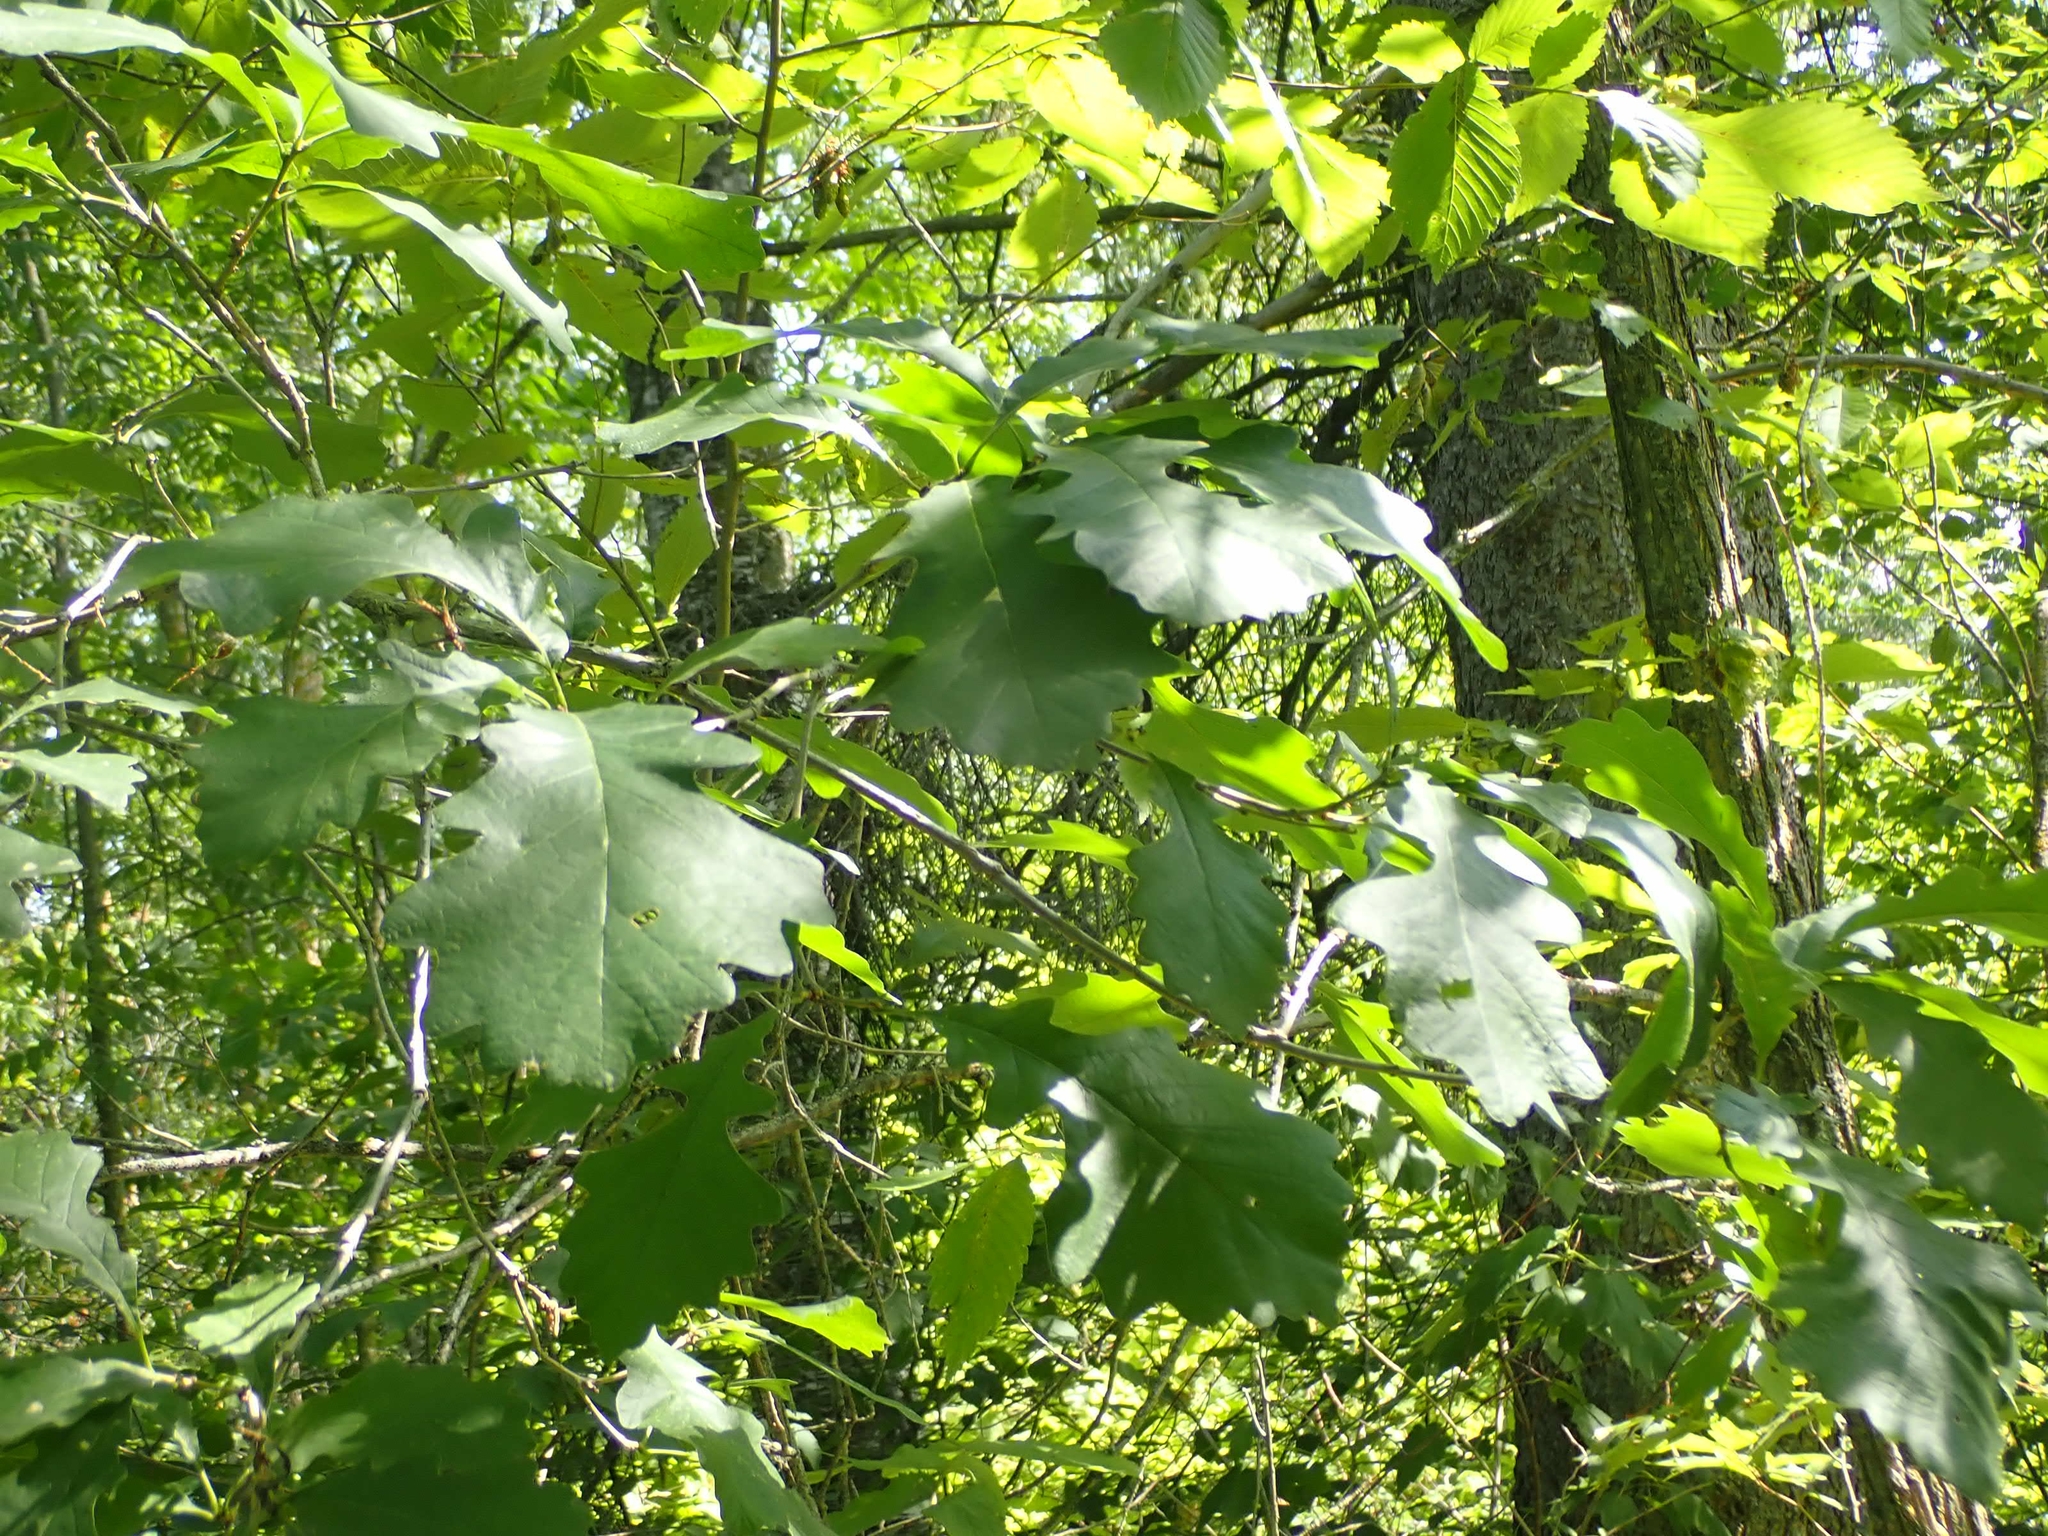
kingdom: Plantae
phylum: Tracheophyta
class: Magnoliopsida
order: Fagales
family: Fagaceae
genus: Quercus
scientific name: Quercus macrocarpa
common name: Bur oak
